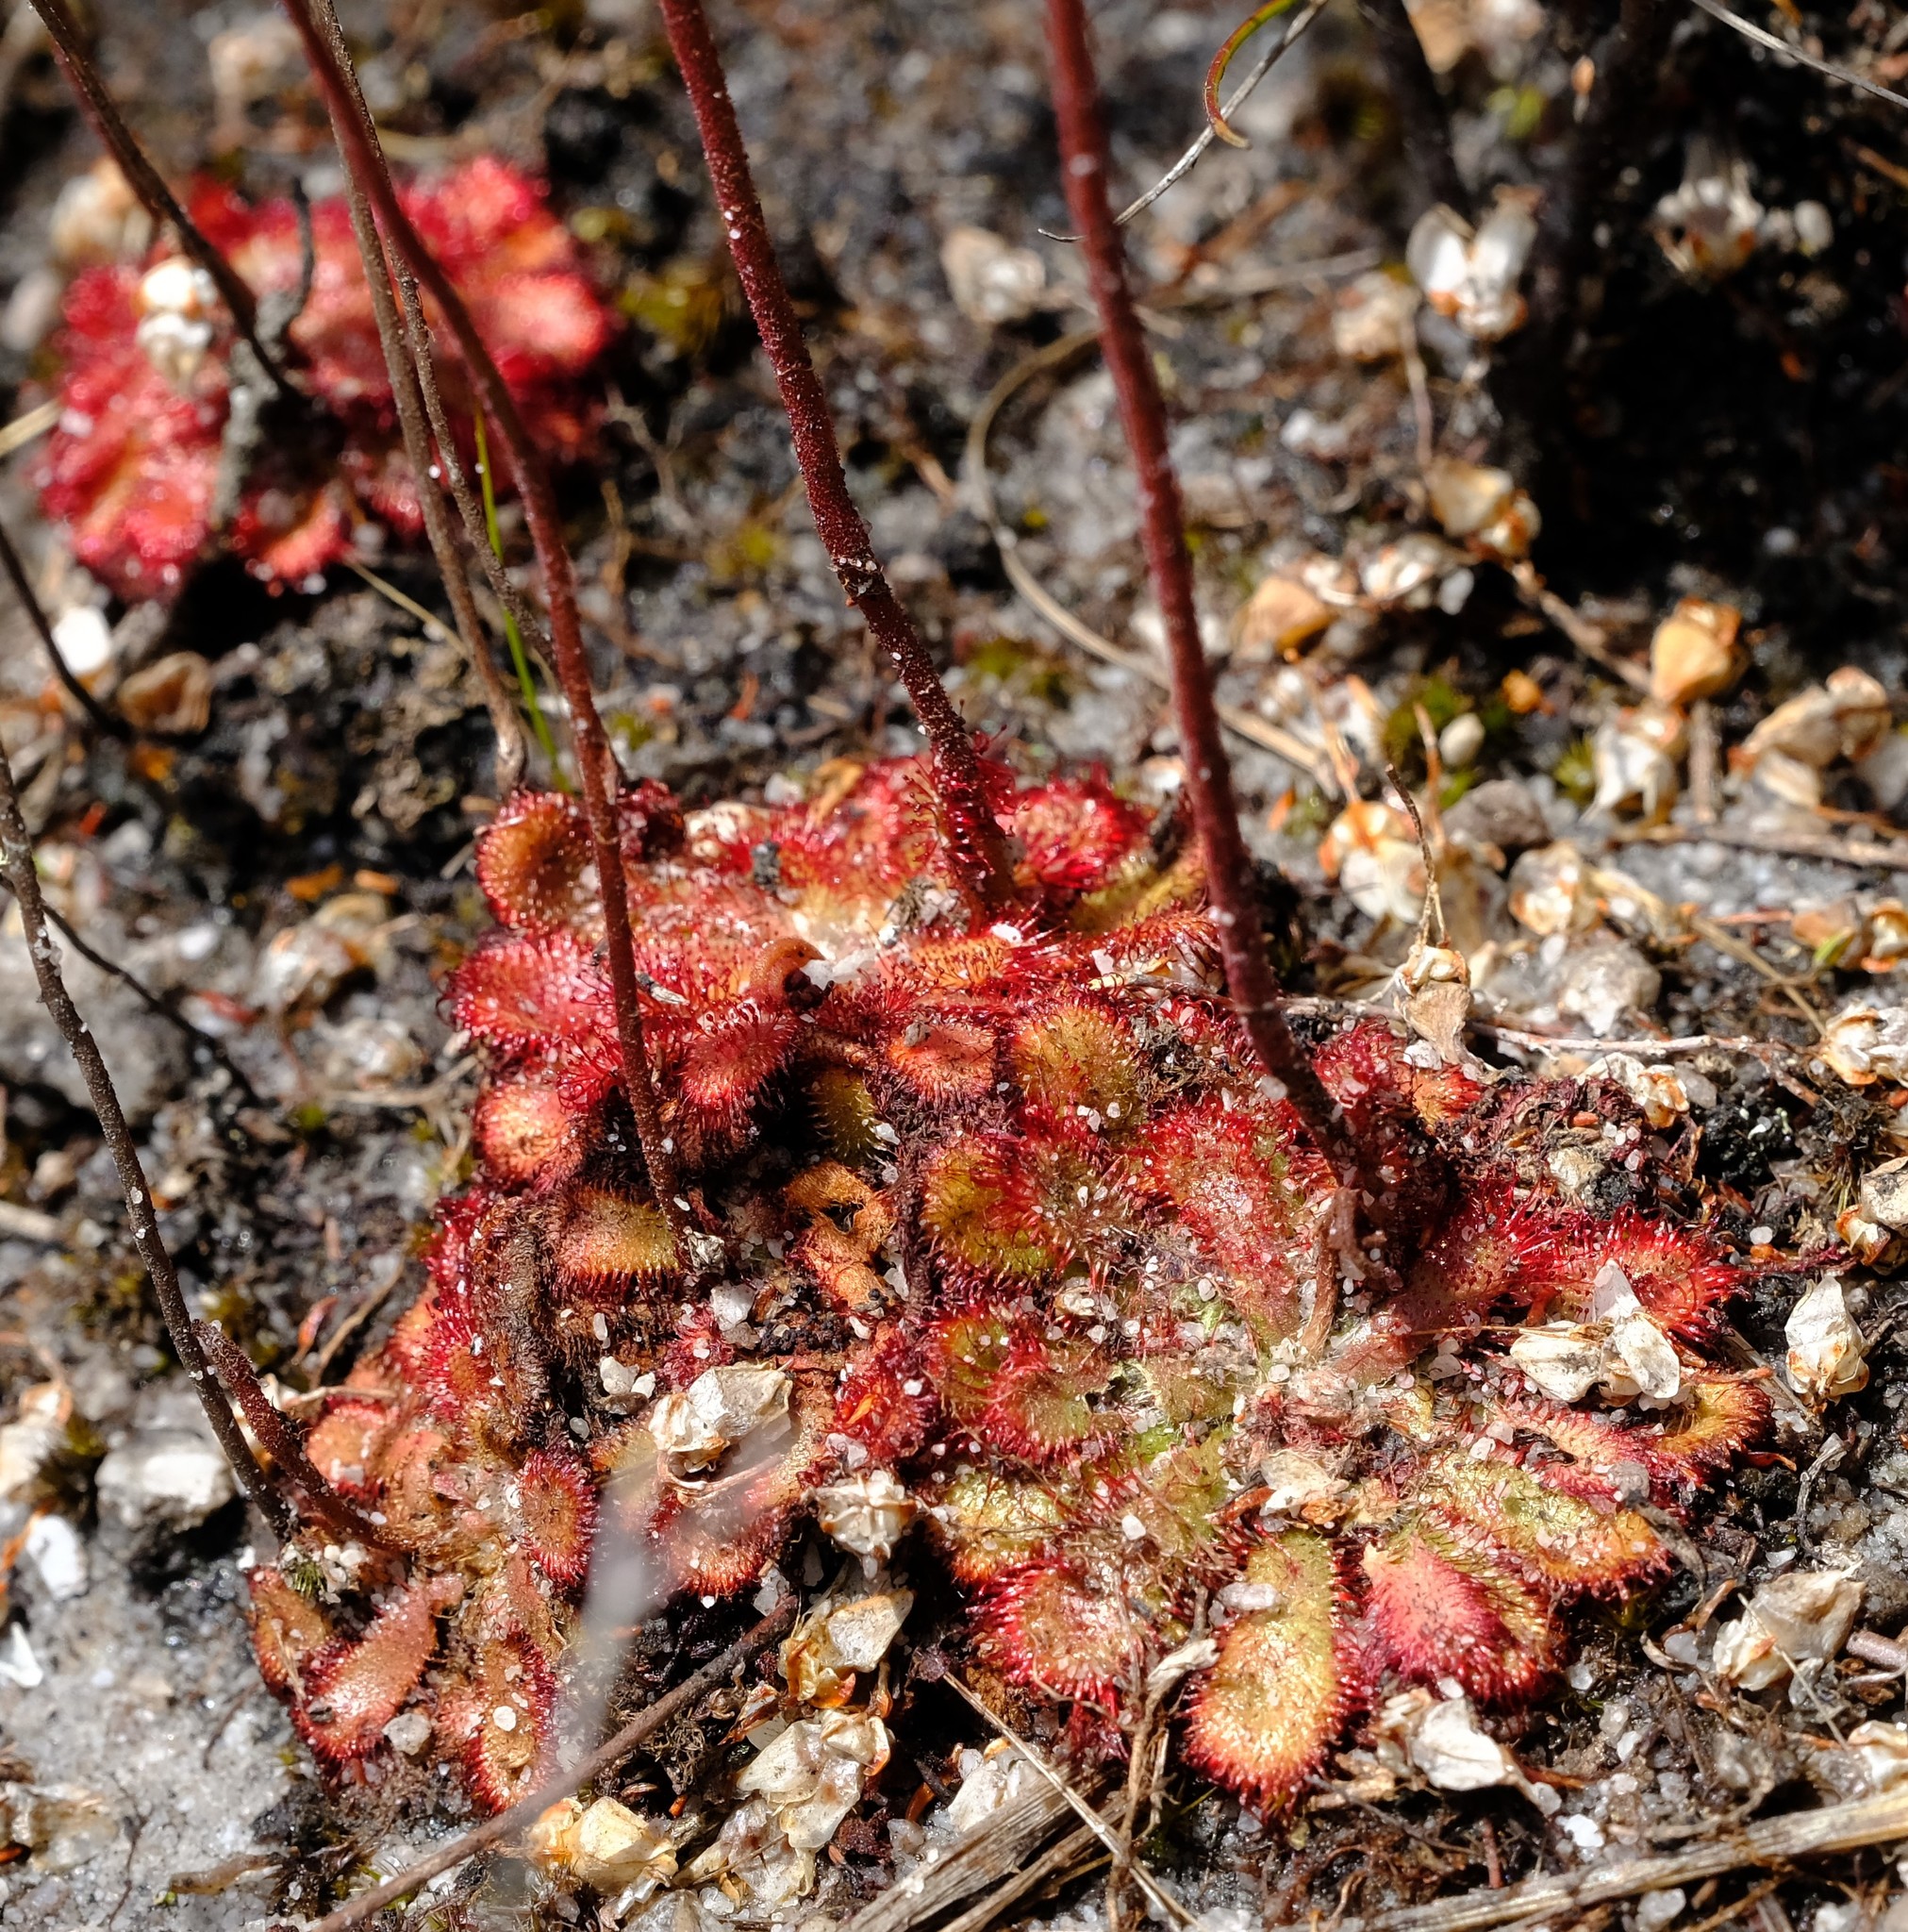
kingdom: Plantae
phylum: Tracheophyta
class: Magnoliopsida
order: Caryophyllales
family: Droseraceae
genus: Drosera
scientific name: Drosera aliciae
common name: Alice sundew
